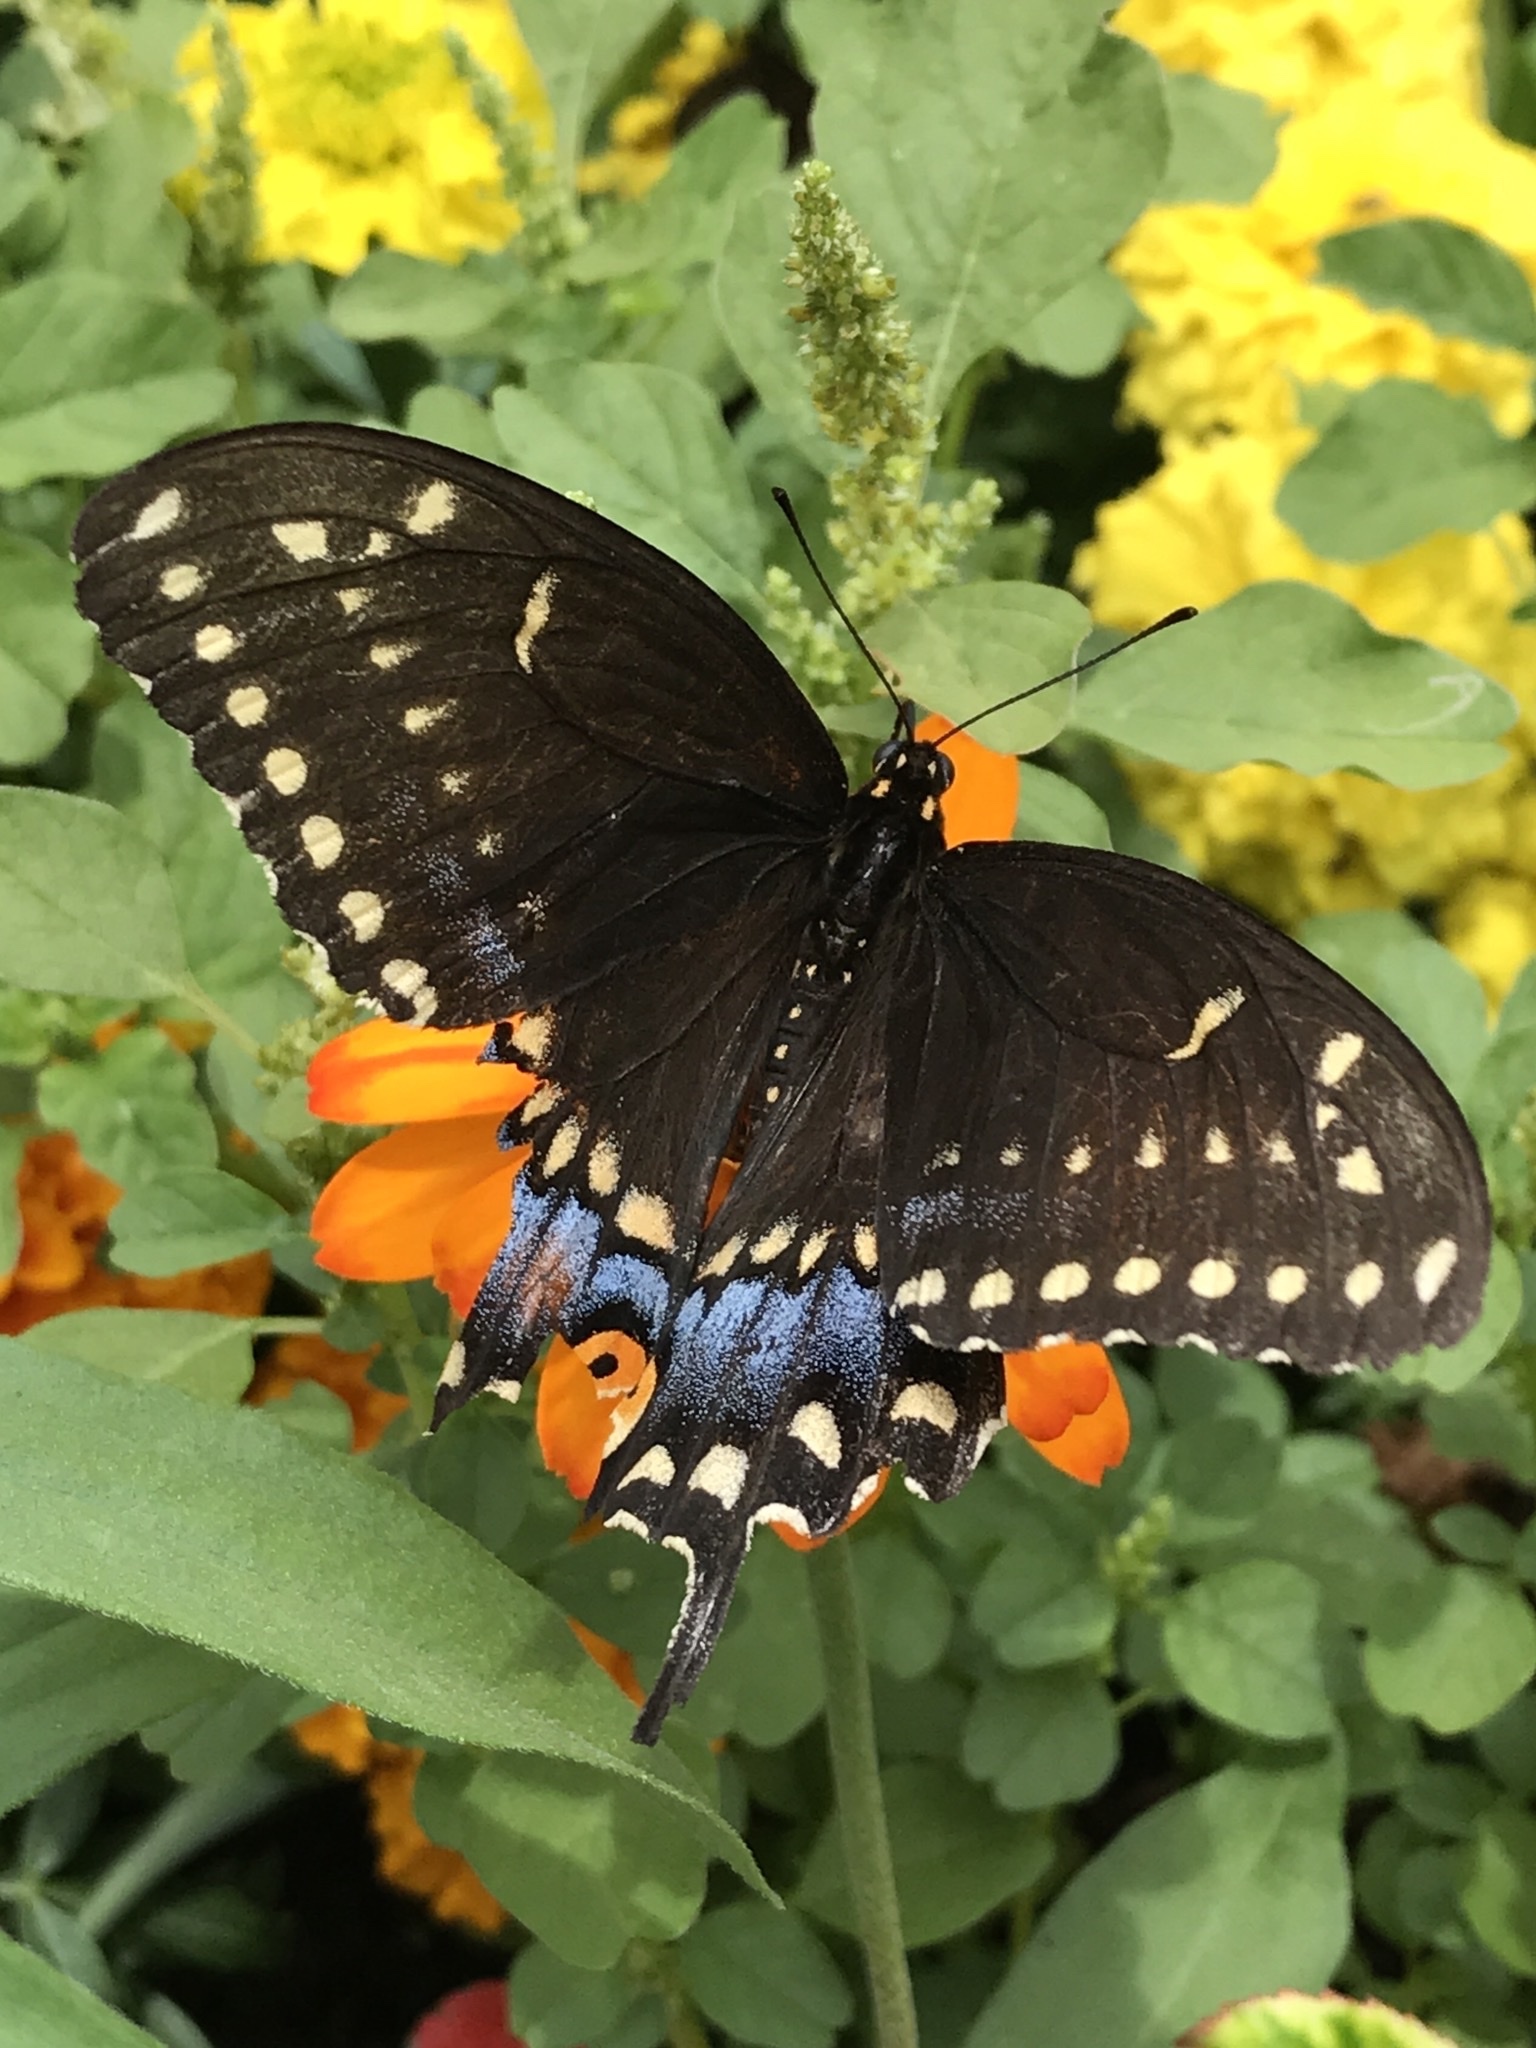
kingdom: Animalia
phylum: Arthropoda
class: Insecta
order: Lepidoptera
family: Papilionidae
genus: Papilio
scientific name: Papilio polyxenes
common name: Black swallowtail
